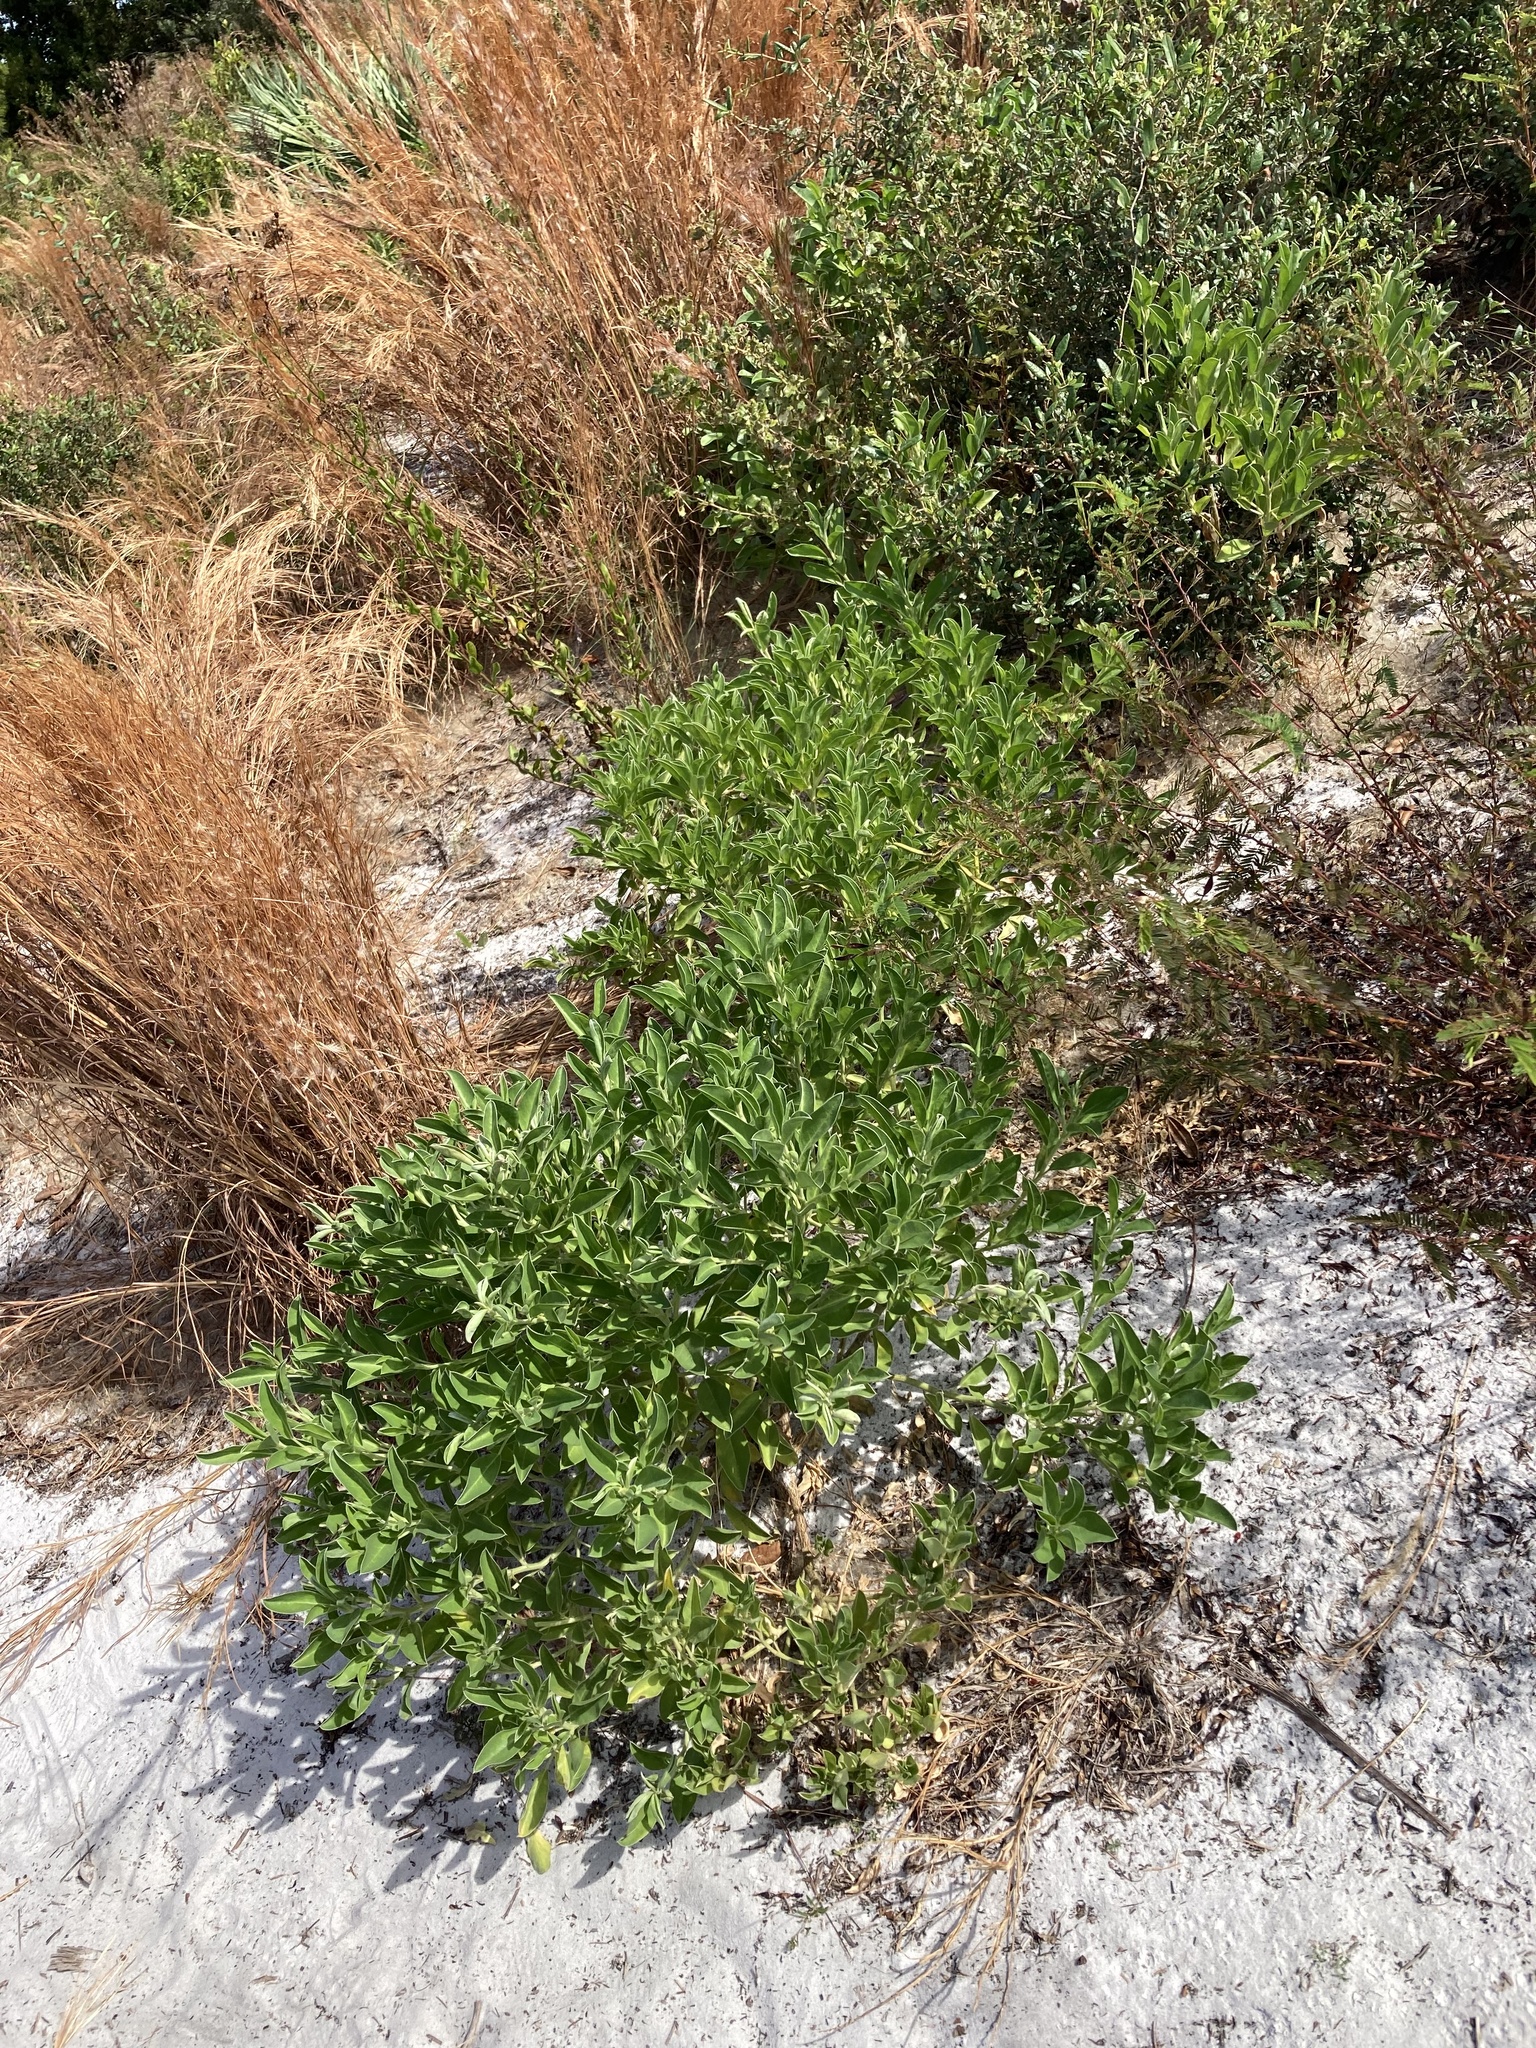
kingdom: Plantae
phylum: Tracheophyta
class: Magnoliopsida
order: Fabales
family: Fabaceae
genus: Lupinus
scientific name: Lupinus
